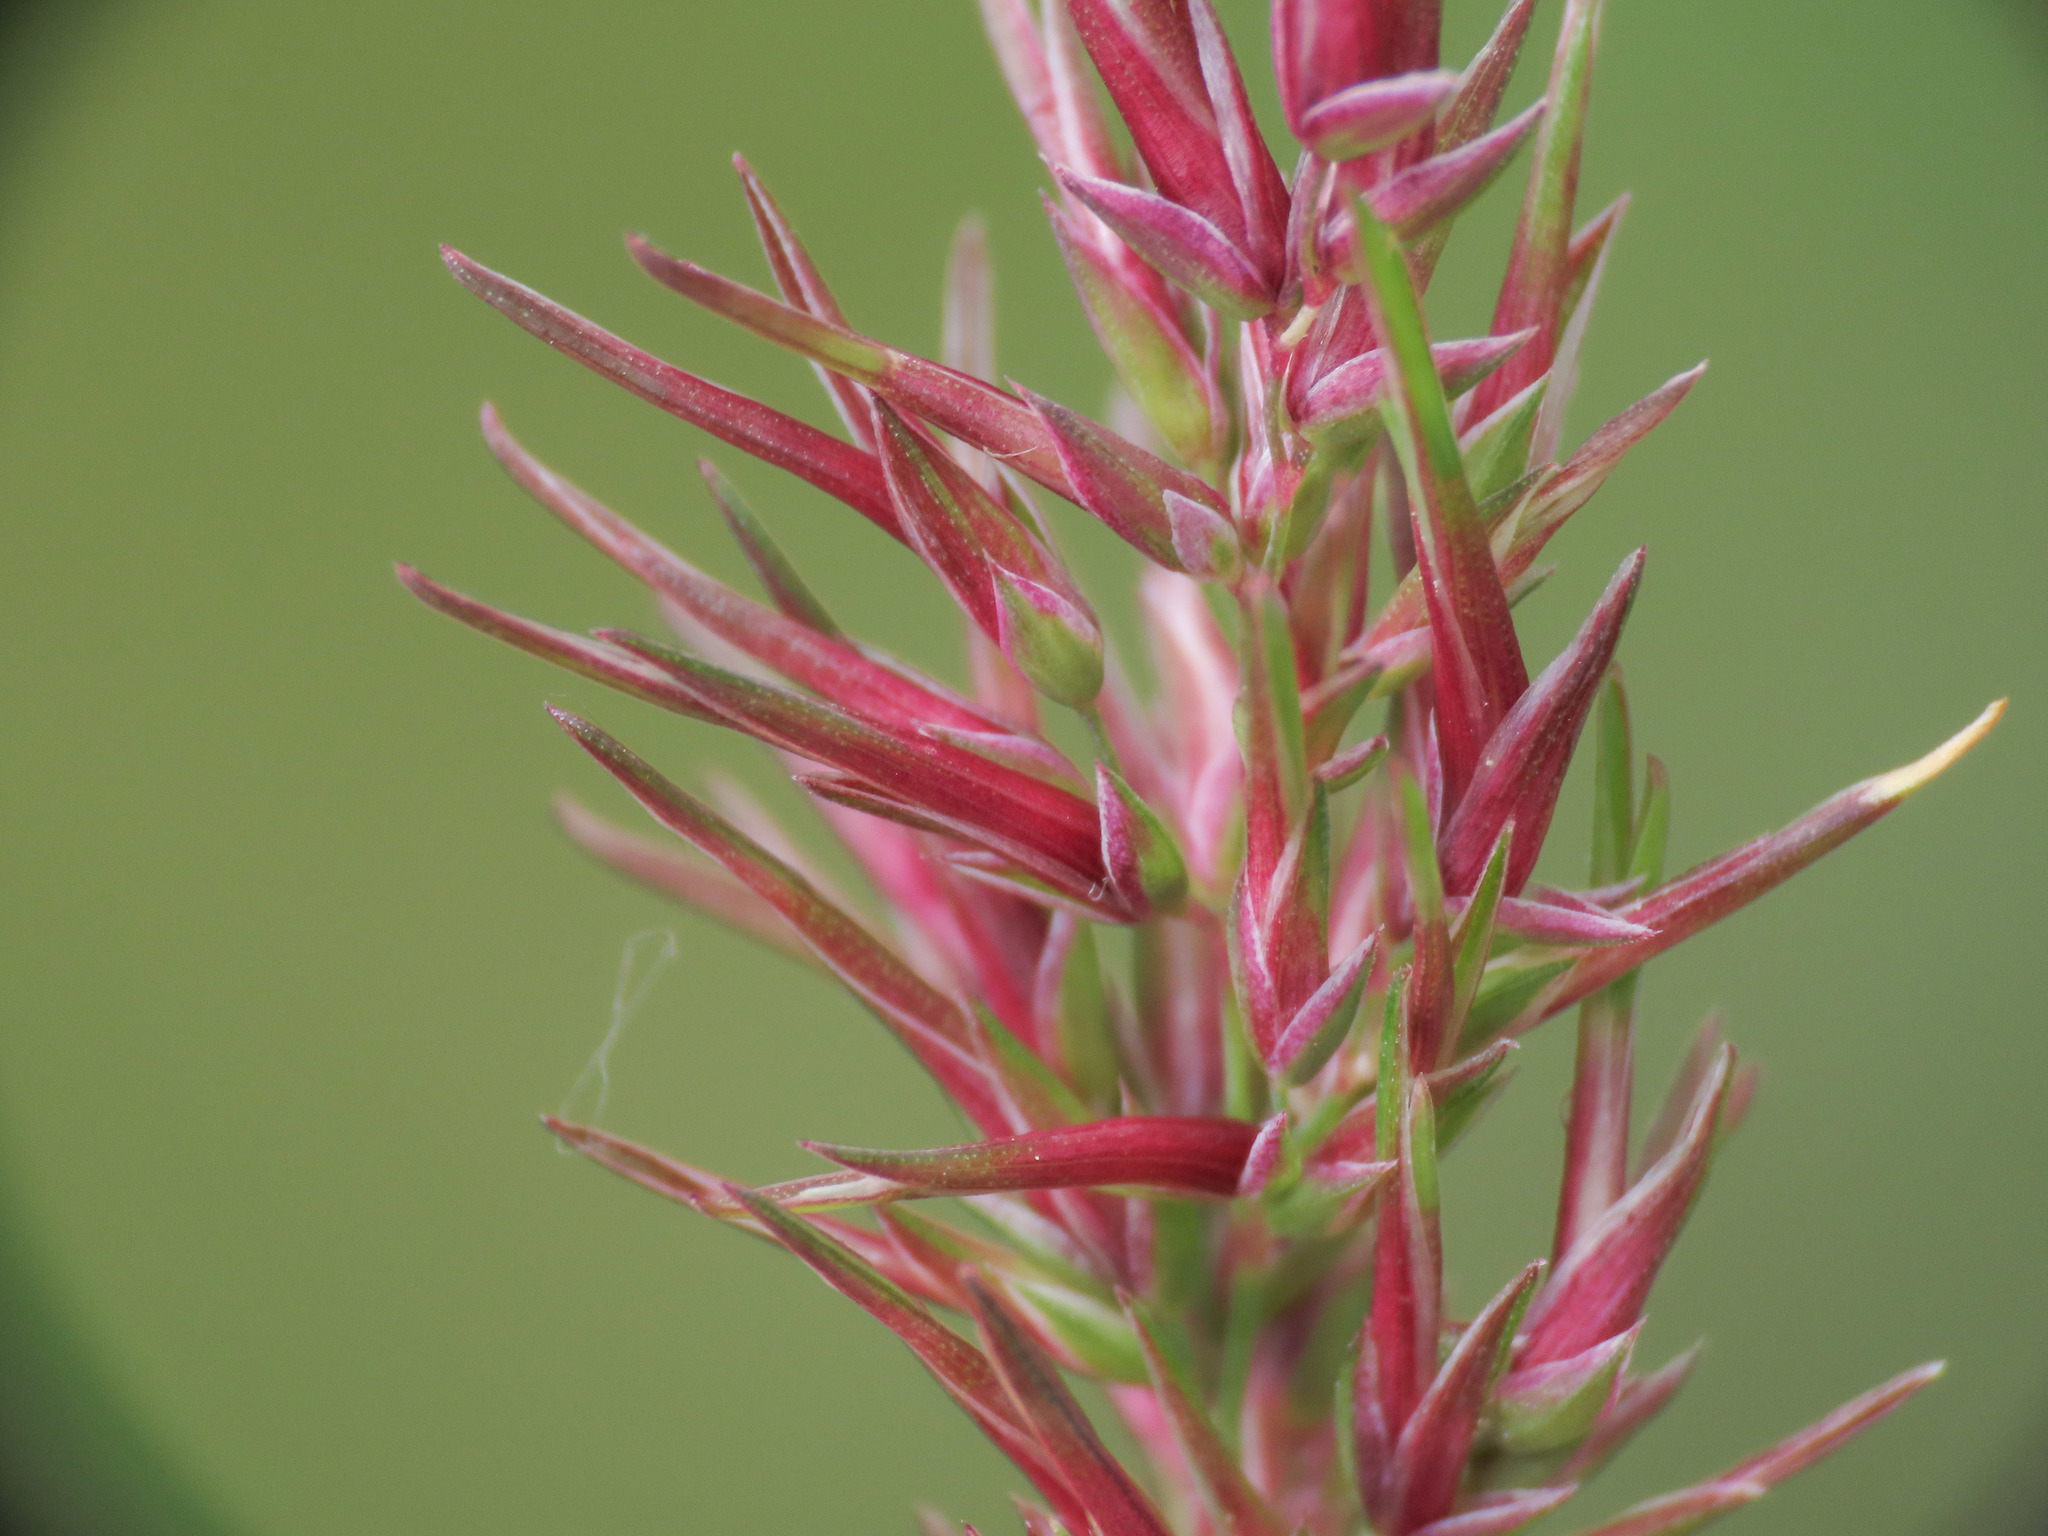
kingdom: Plantae
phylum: Tracheophyta
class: Liliopsida
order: Poales
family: Poaceae
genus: Poa
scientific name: Poa bulbosa
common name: Bulbous bluegrass
